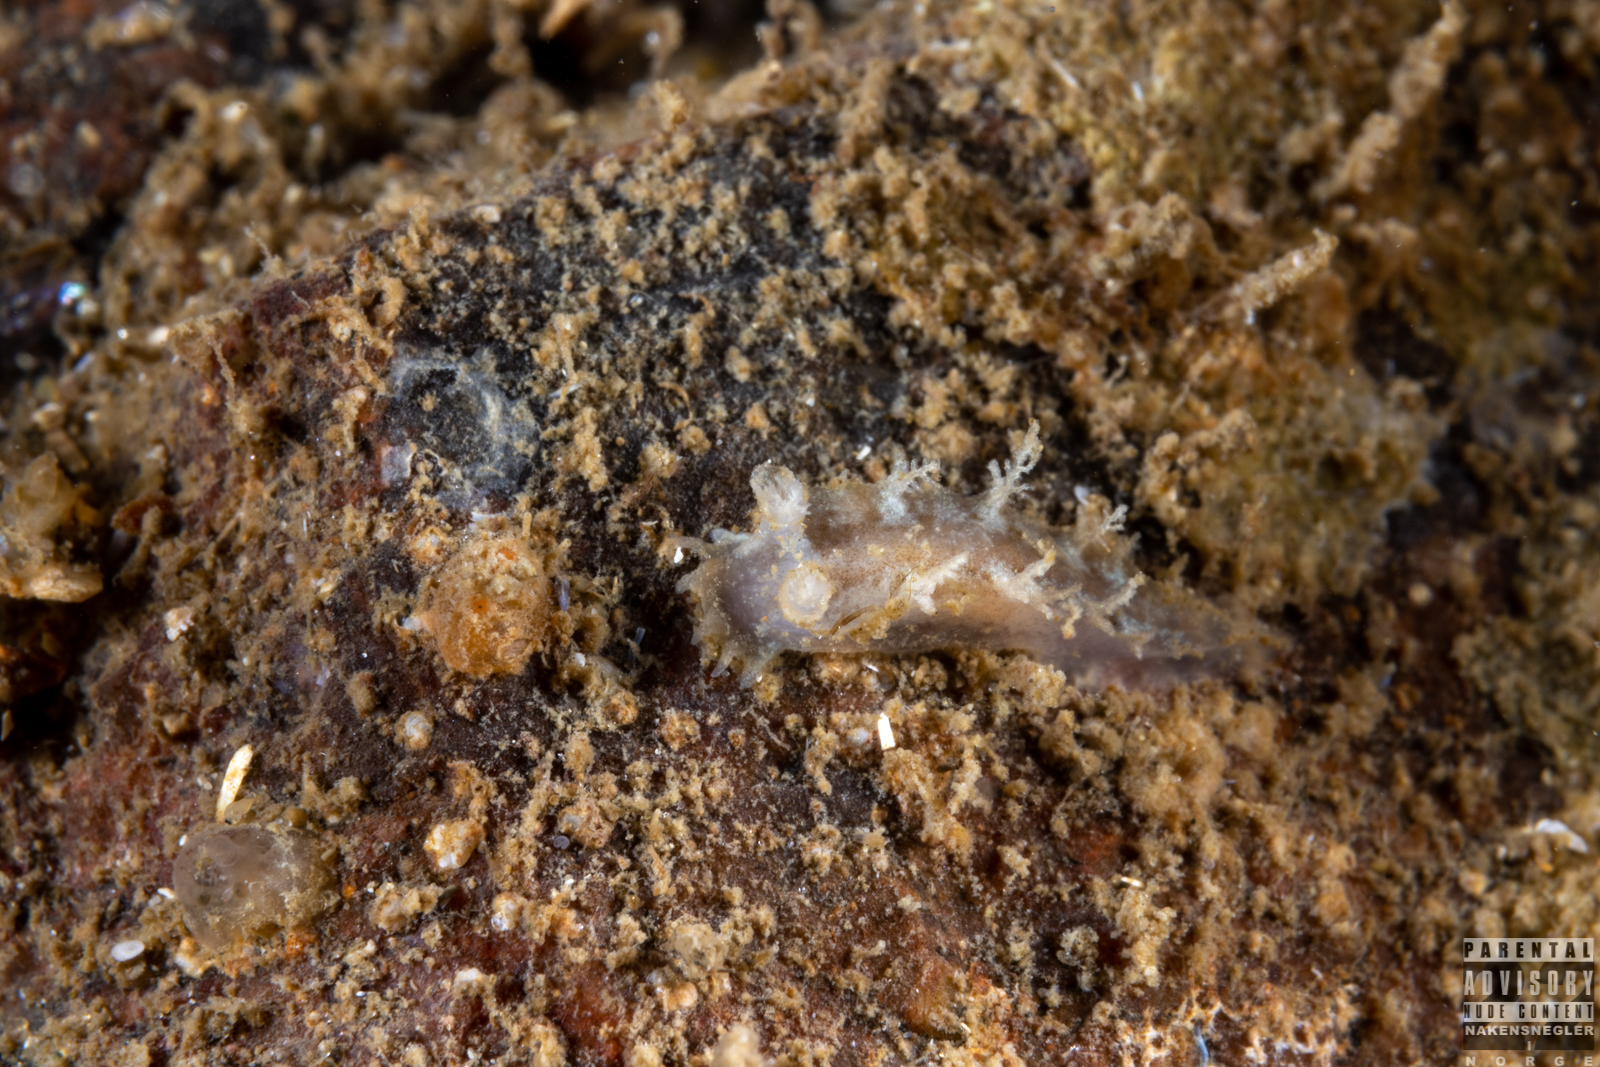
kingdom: Animalia
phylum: Mollusca
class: Gastropoda
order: Nudibranchia
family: Tritoniidae
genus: Duvaucelia
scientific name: Duvaucelia plebeia
